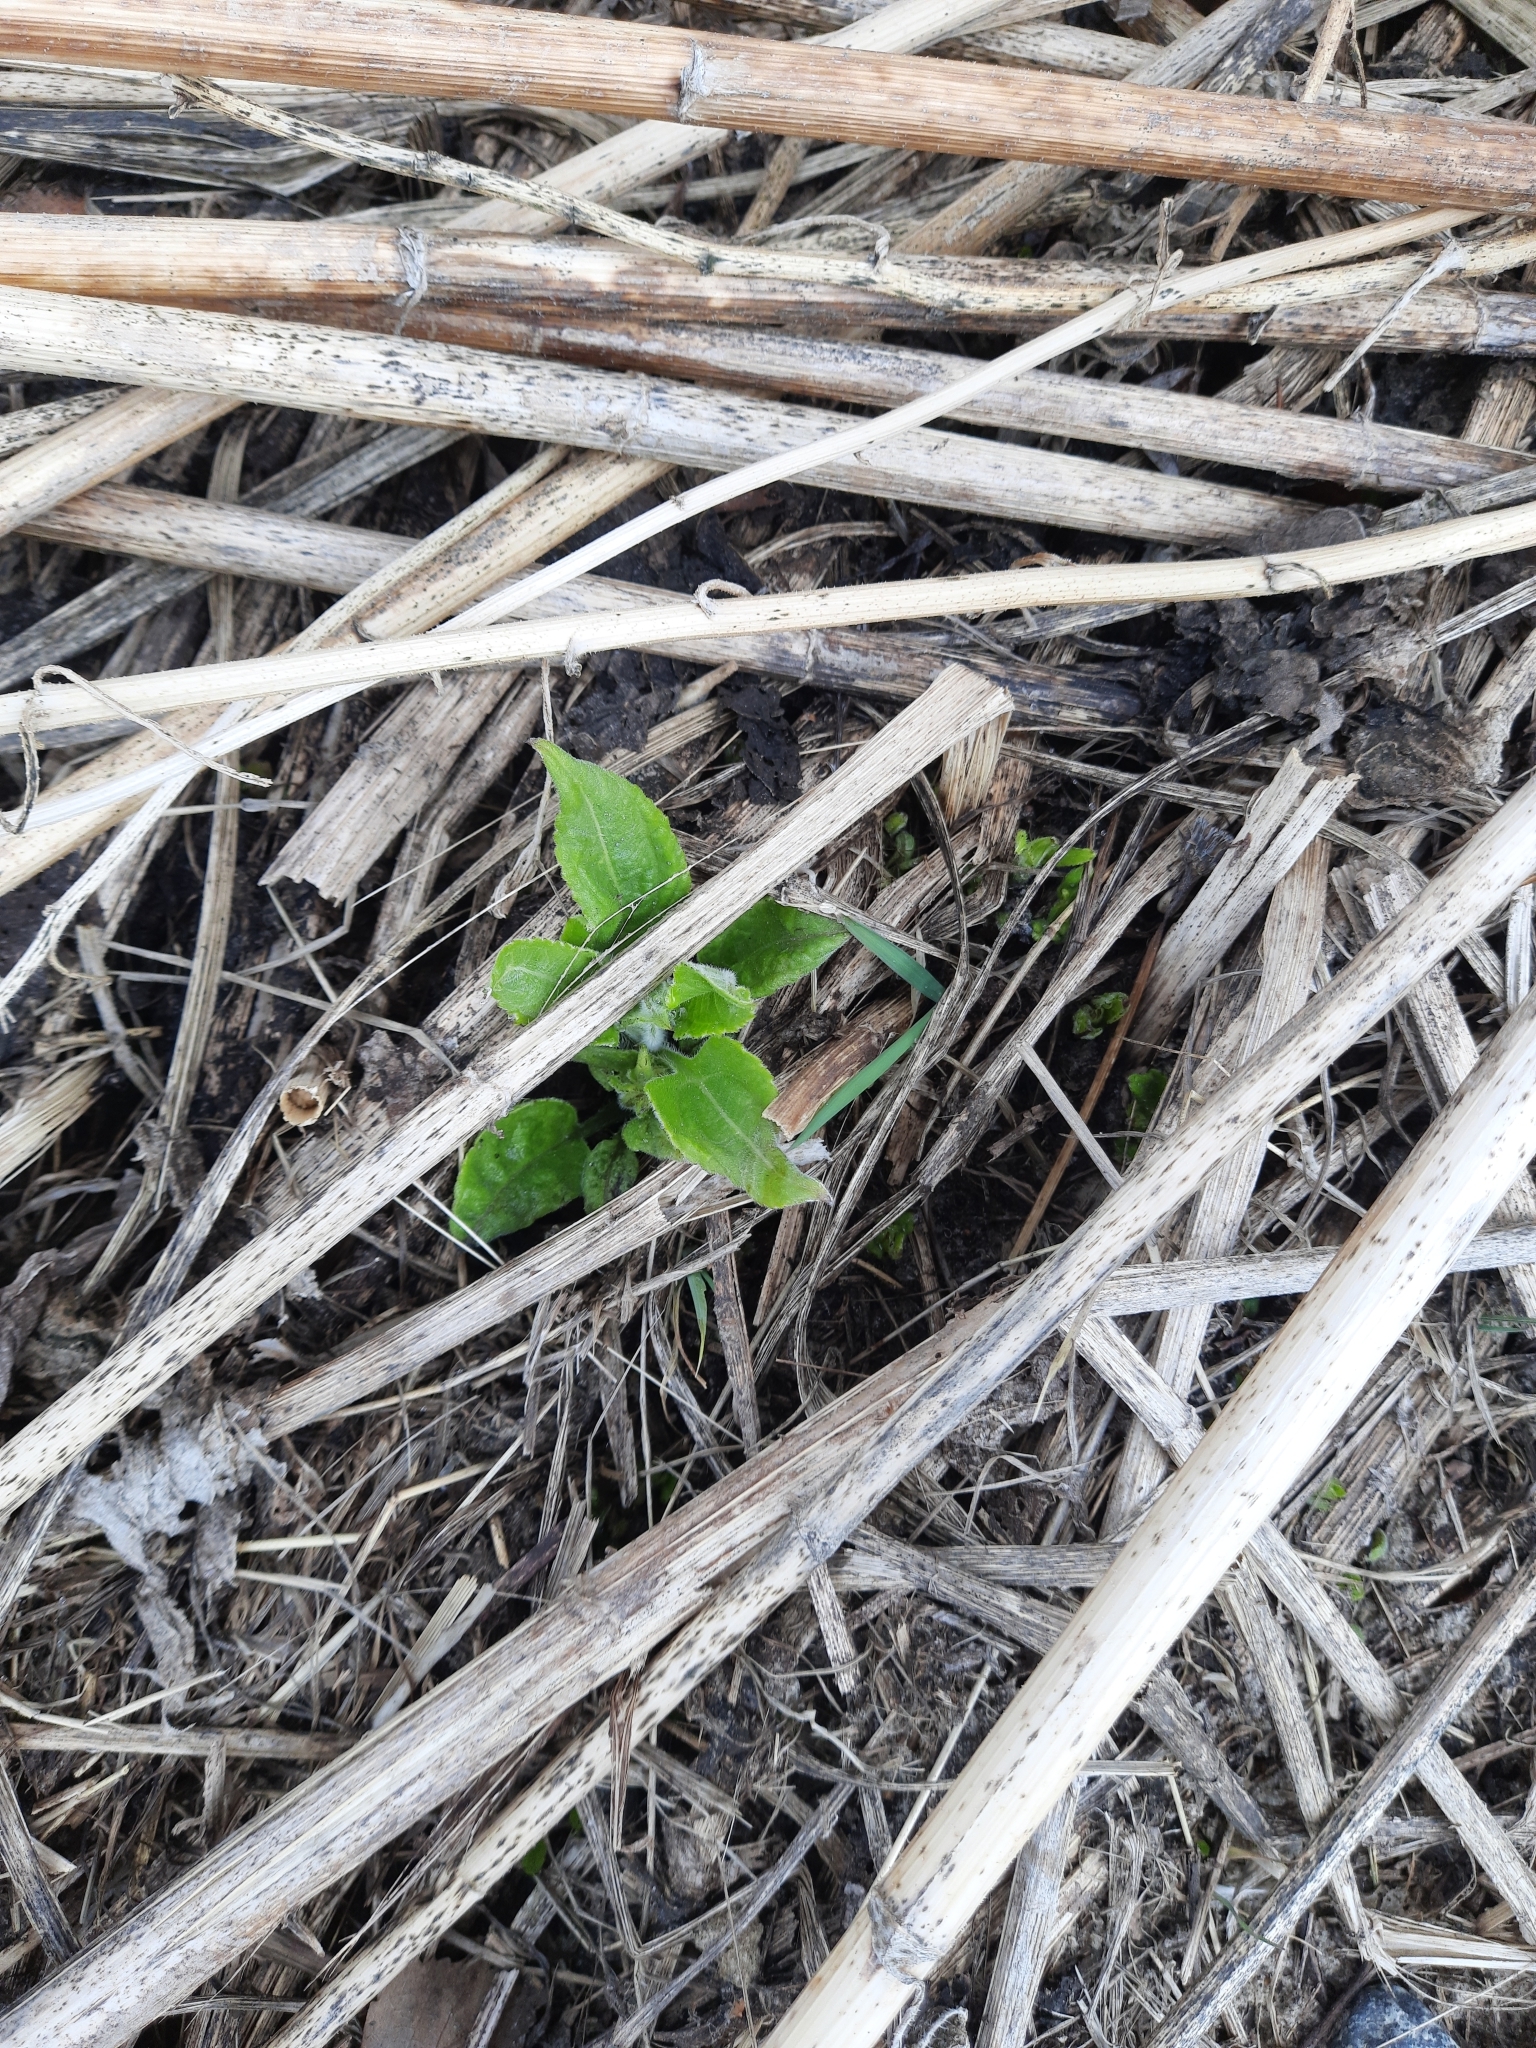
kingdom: Plantae
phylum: Tracheophyta
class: Magnoliopsida
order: Asterales
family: Asteraceae
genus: Helianthus
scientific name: Helianthus tuberosus
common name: Jerusalem artichoke
